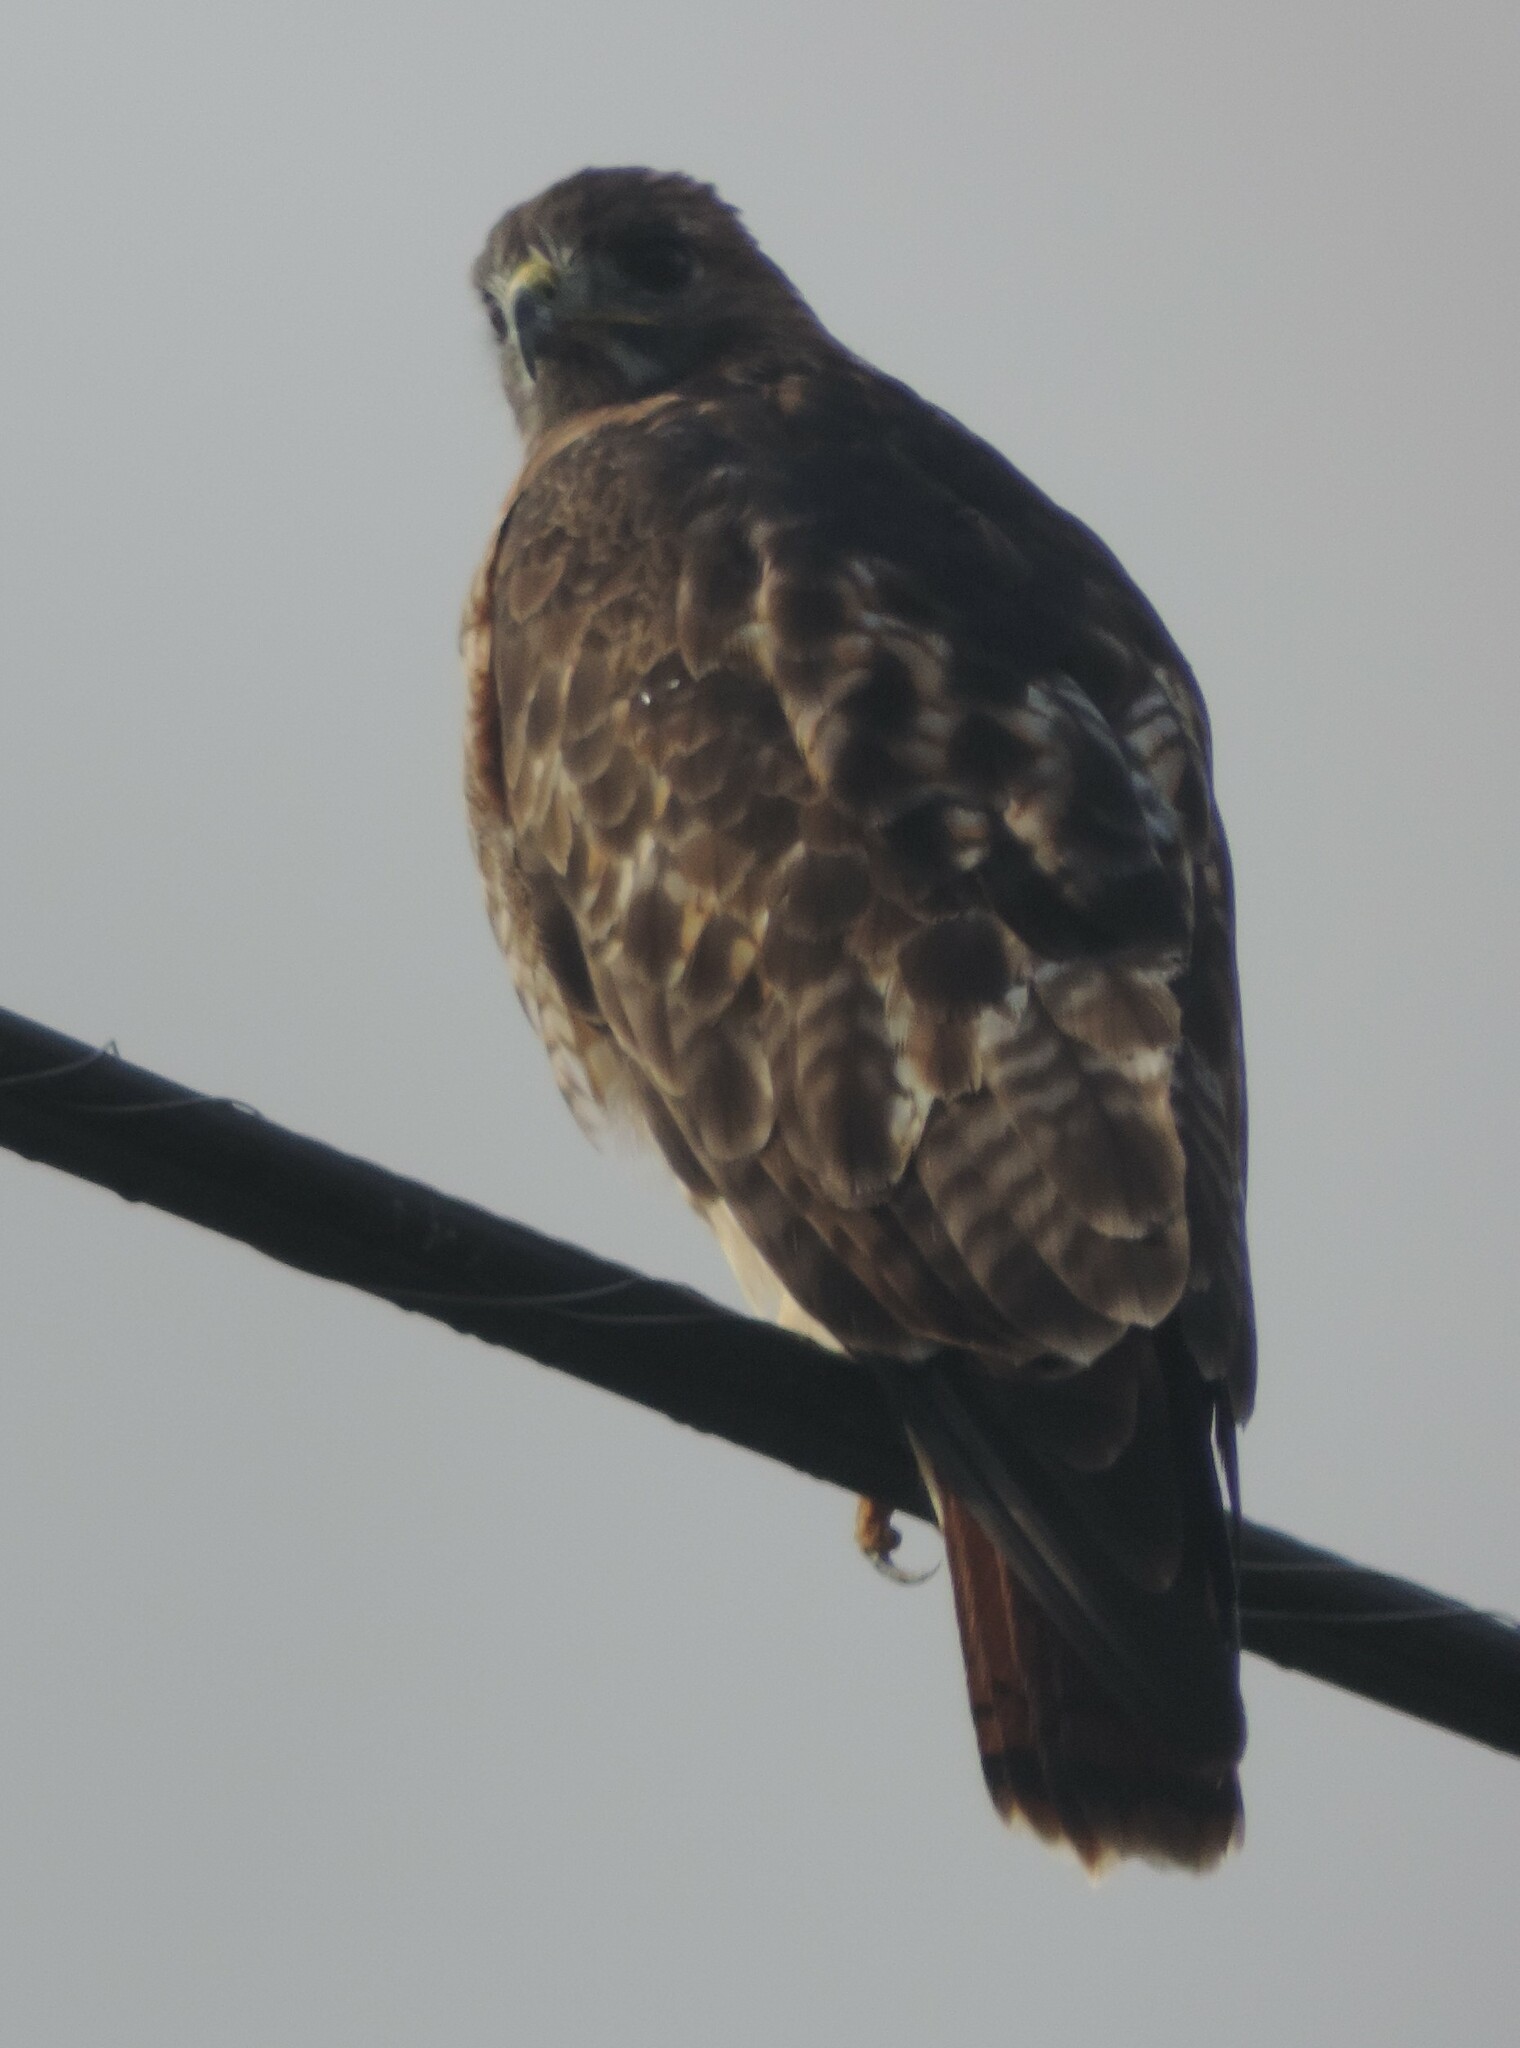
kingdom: Animalia
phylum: Chordata
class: Aves
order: Accipitriformes
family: Accipitridae
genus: Buteo
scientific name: Buteo jamaicensis
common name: Red-tailed hawk
